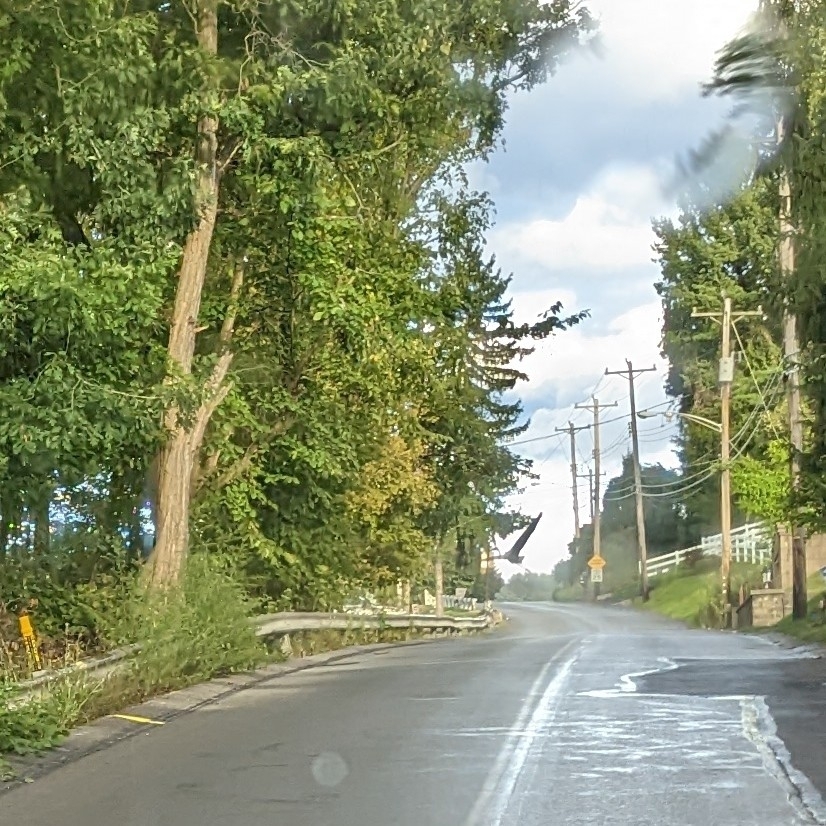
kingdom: Animalia
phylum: Chordata
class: Aves
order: Pelecaniformes
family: Ardeidae
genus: Ardea
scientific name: Ardea herodias
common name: Great blue heron
